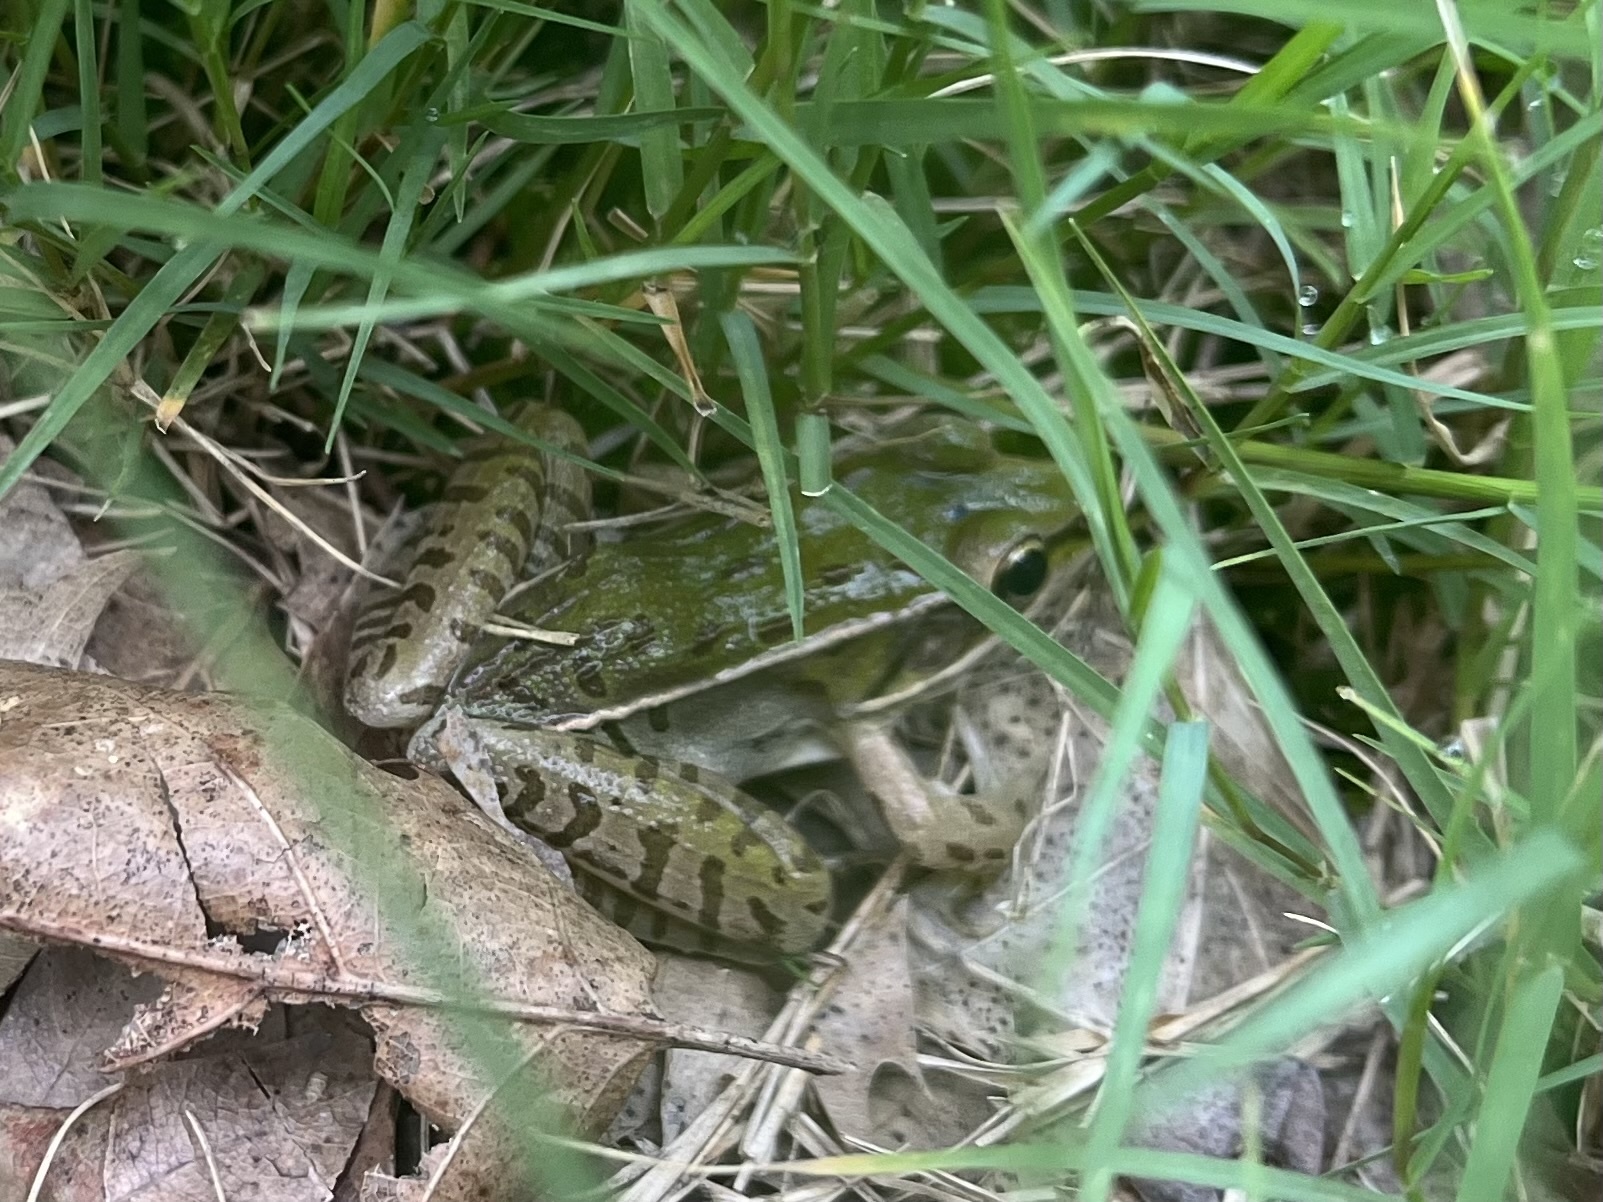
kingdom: Animalia
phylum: Chordata
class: Amphibia
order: Anura
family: Ranidae
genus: Lithobates
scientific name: Lithobates sphenocephalus
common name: Southern leopard frog
